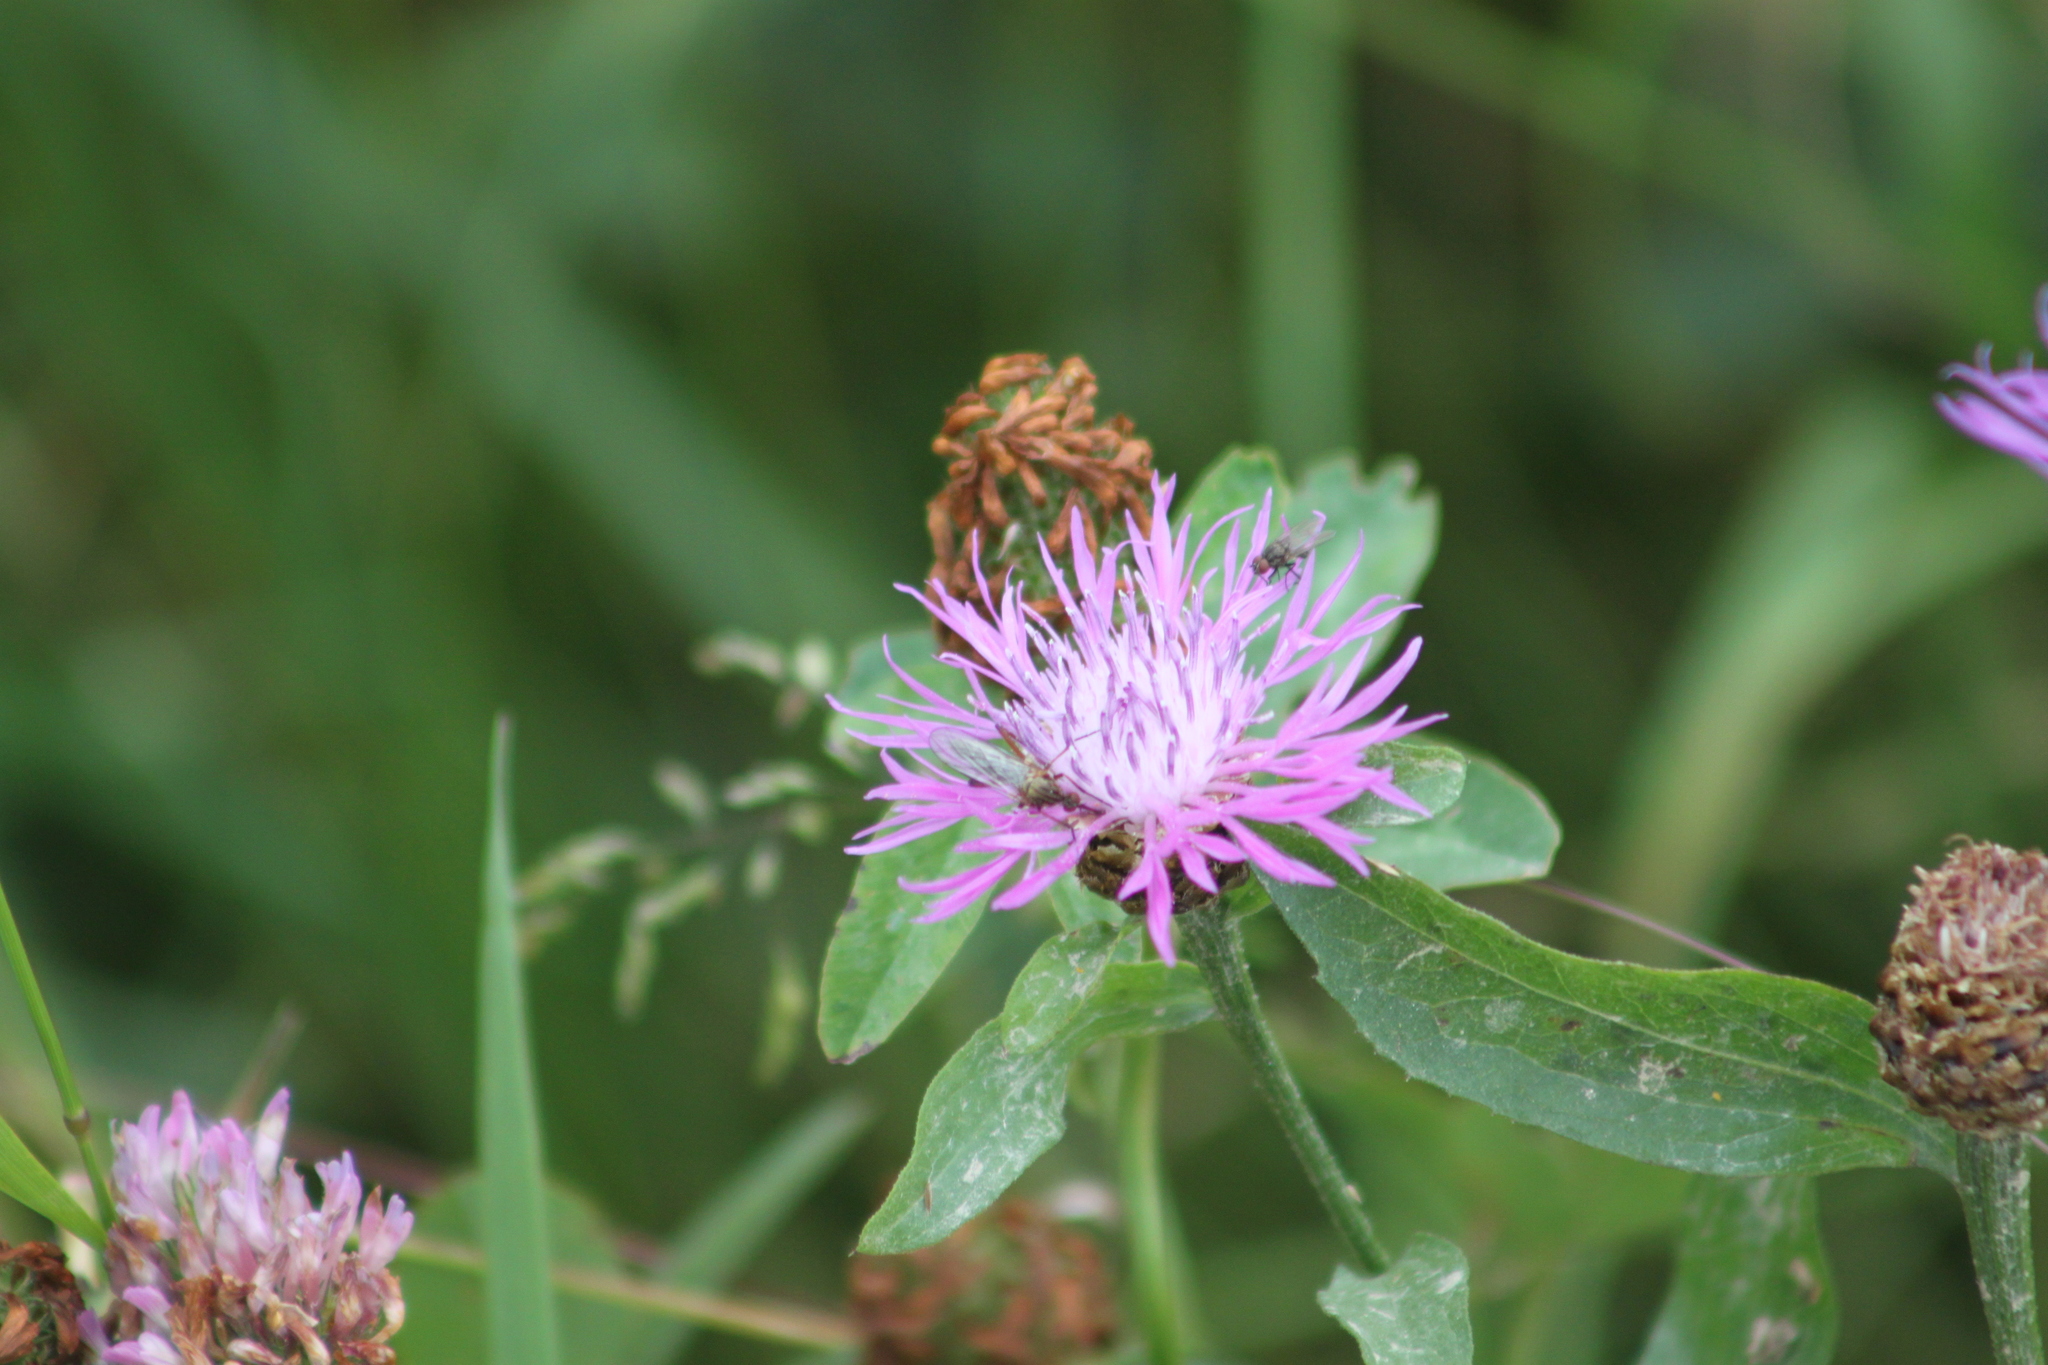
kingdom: Plantae
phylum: Tracheophyta
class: Magnoliopsida
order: Asterales
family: Asteraceae
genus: Centaurea
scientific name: Centaurea jacea
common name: Brown knapweed
